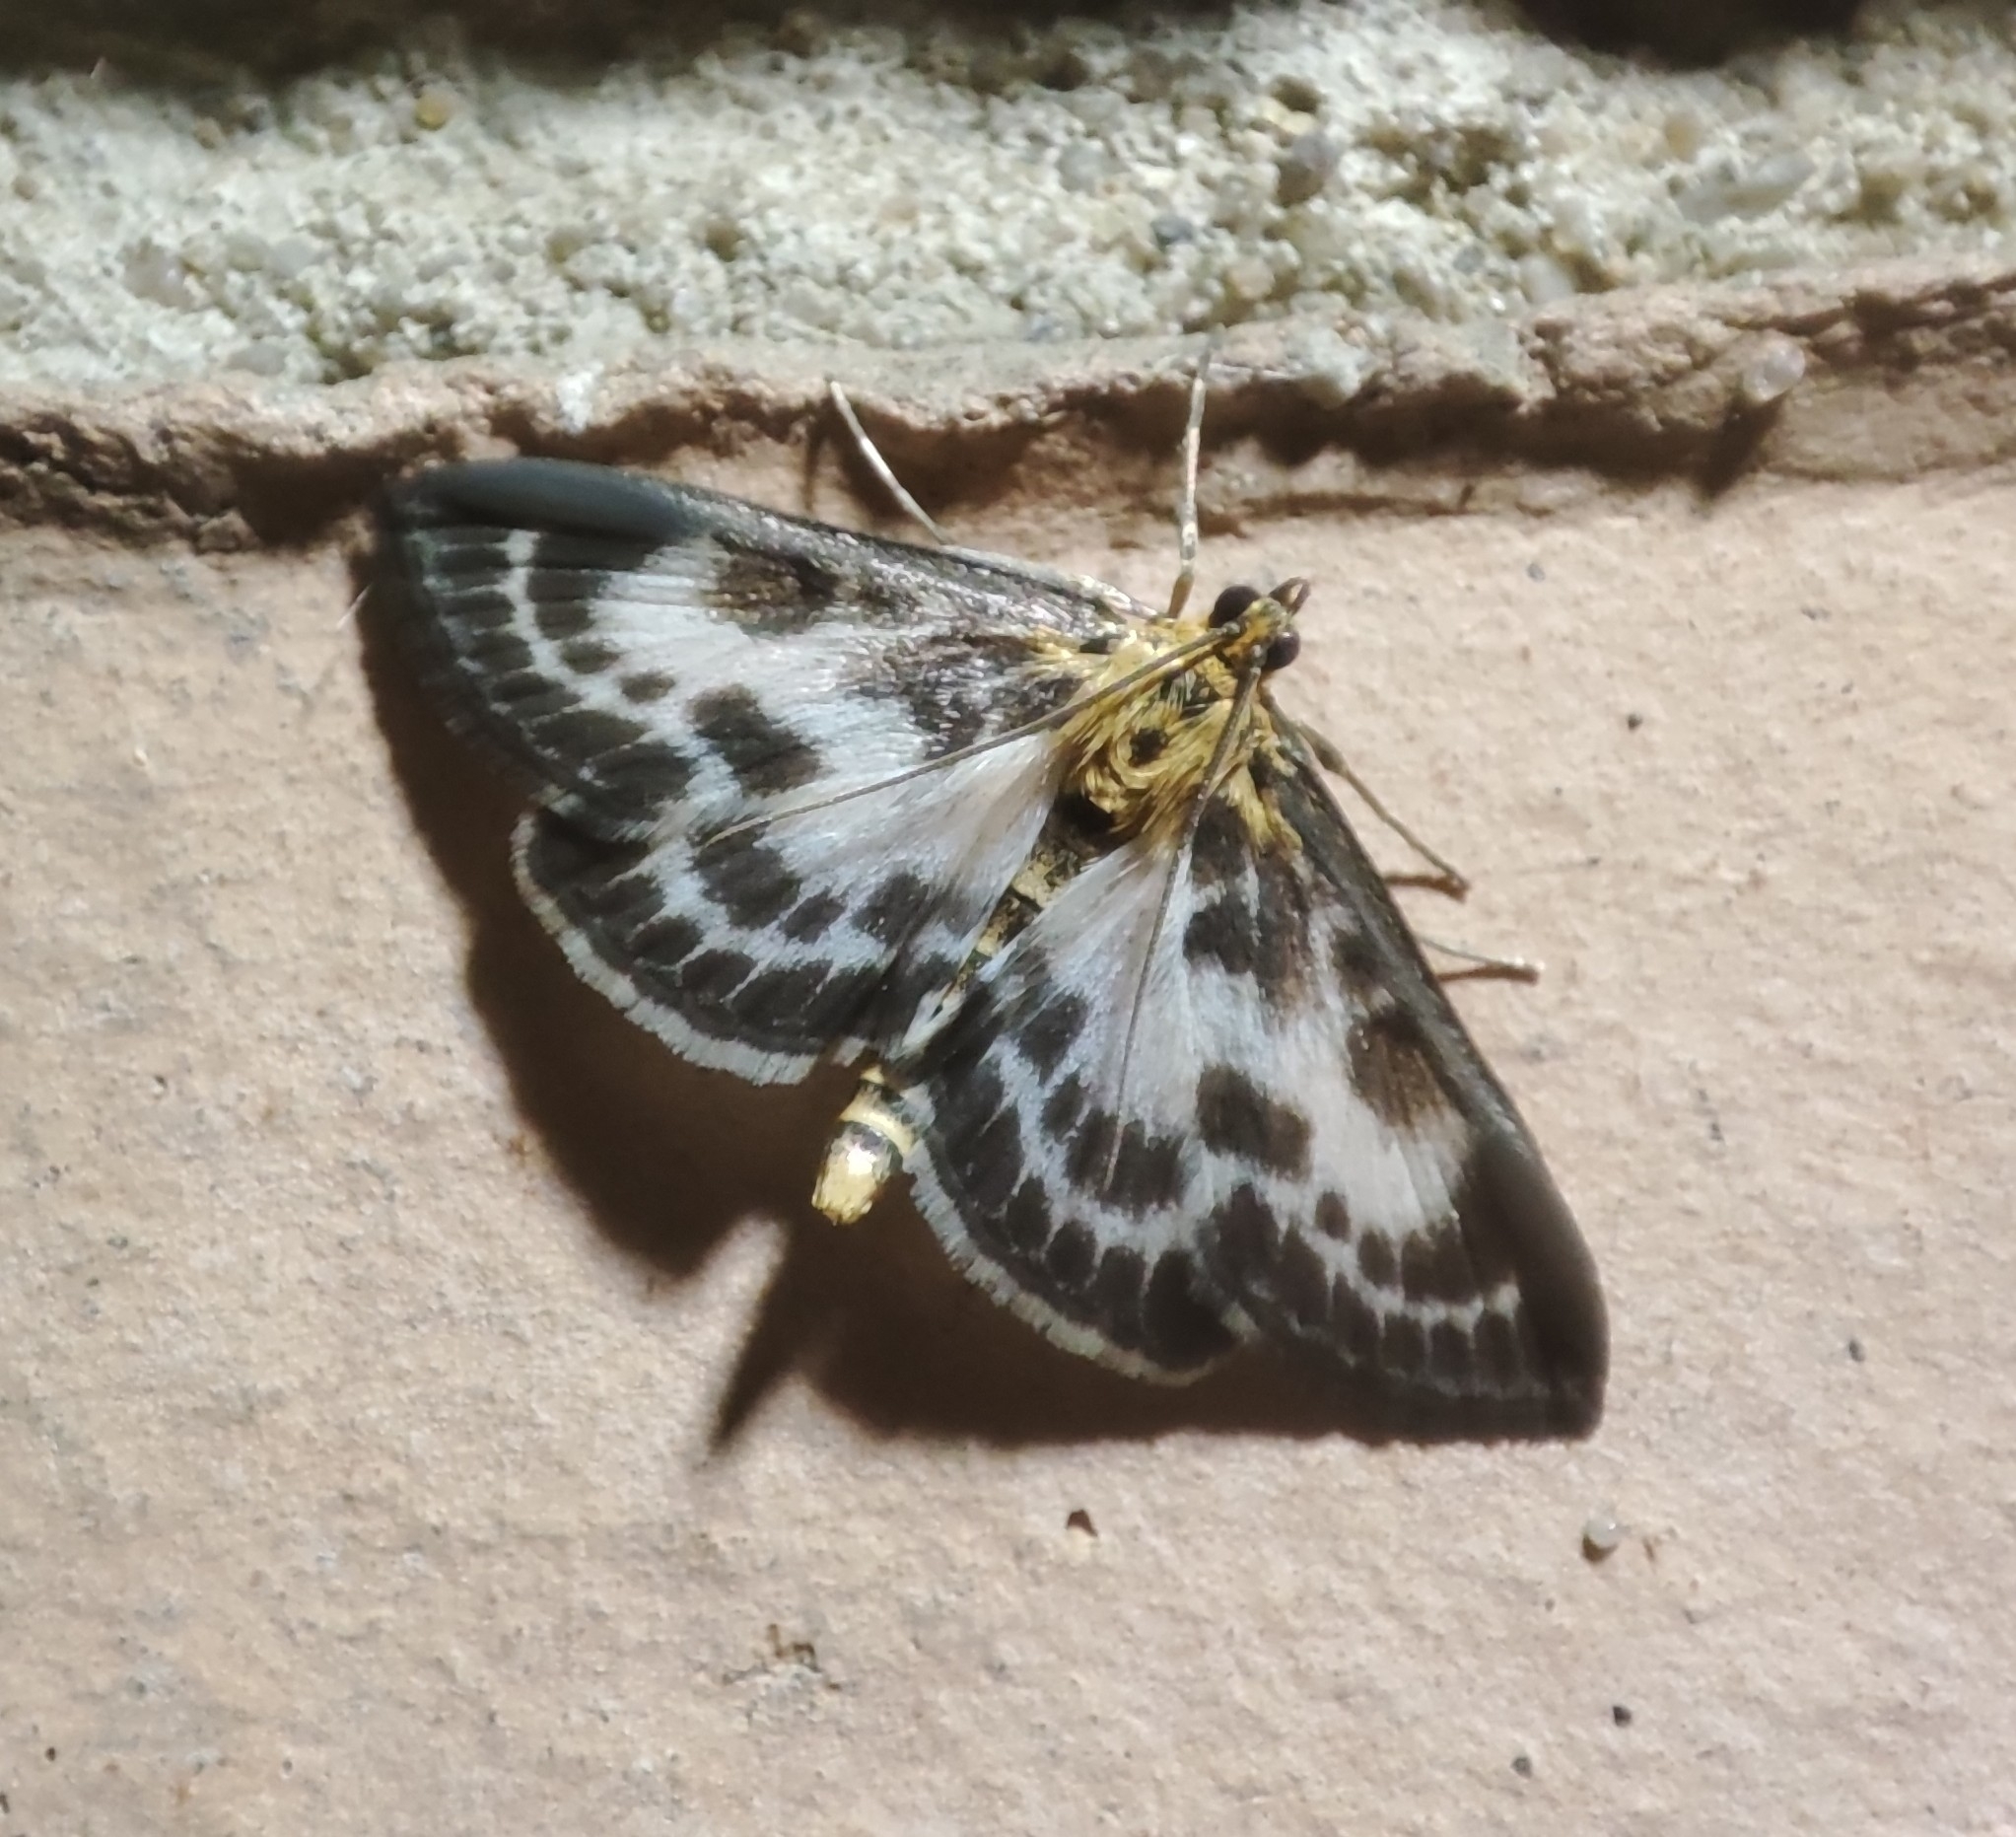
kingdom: Animalia
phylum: Arthropoda
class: Insecta
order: Lepidoptera
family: Crambidae
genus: Anania
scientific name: Anania hortulata
